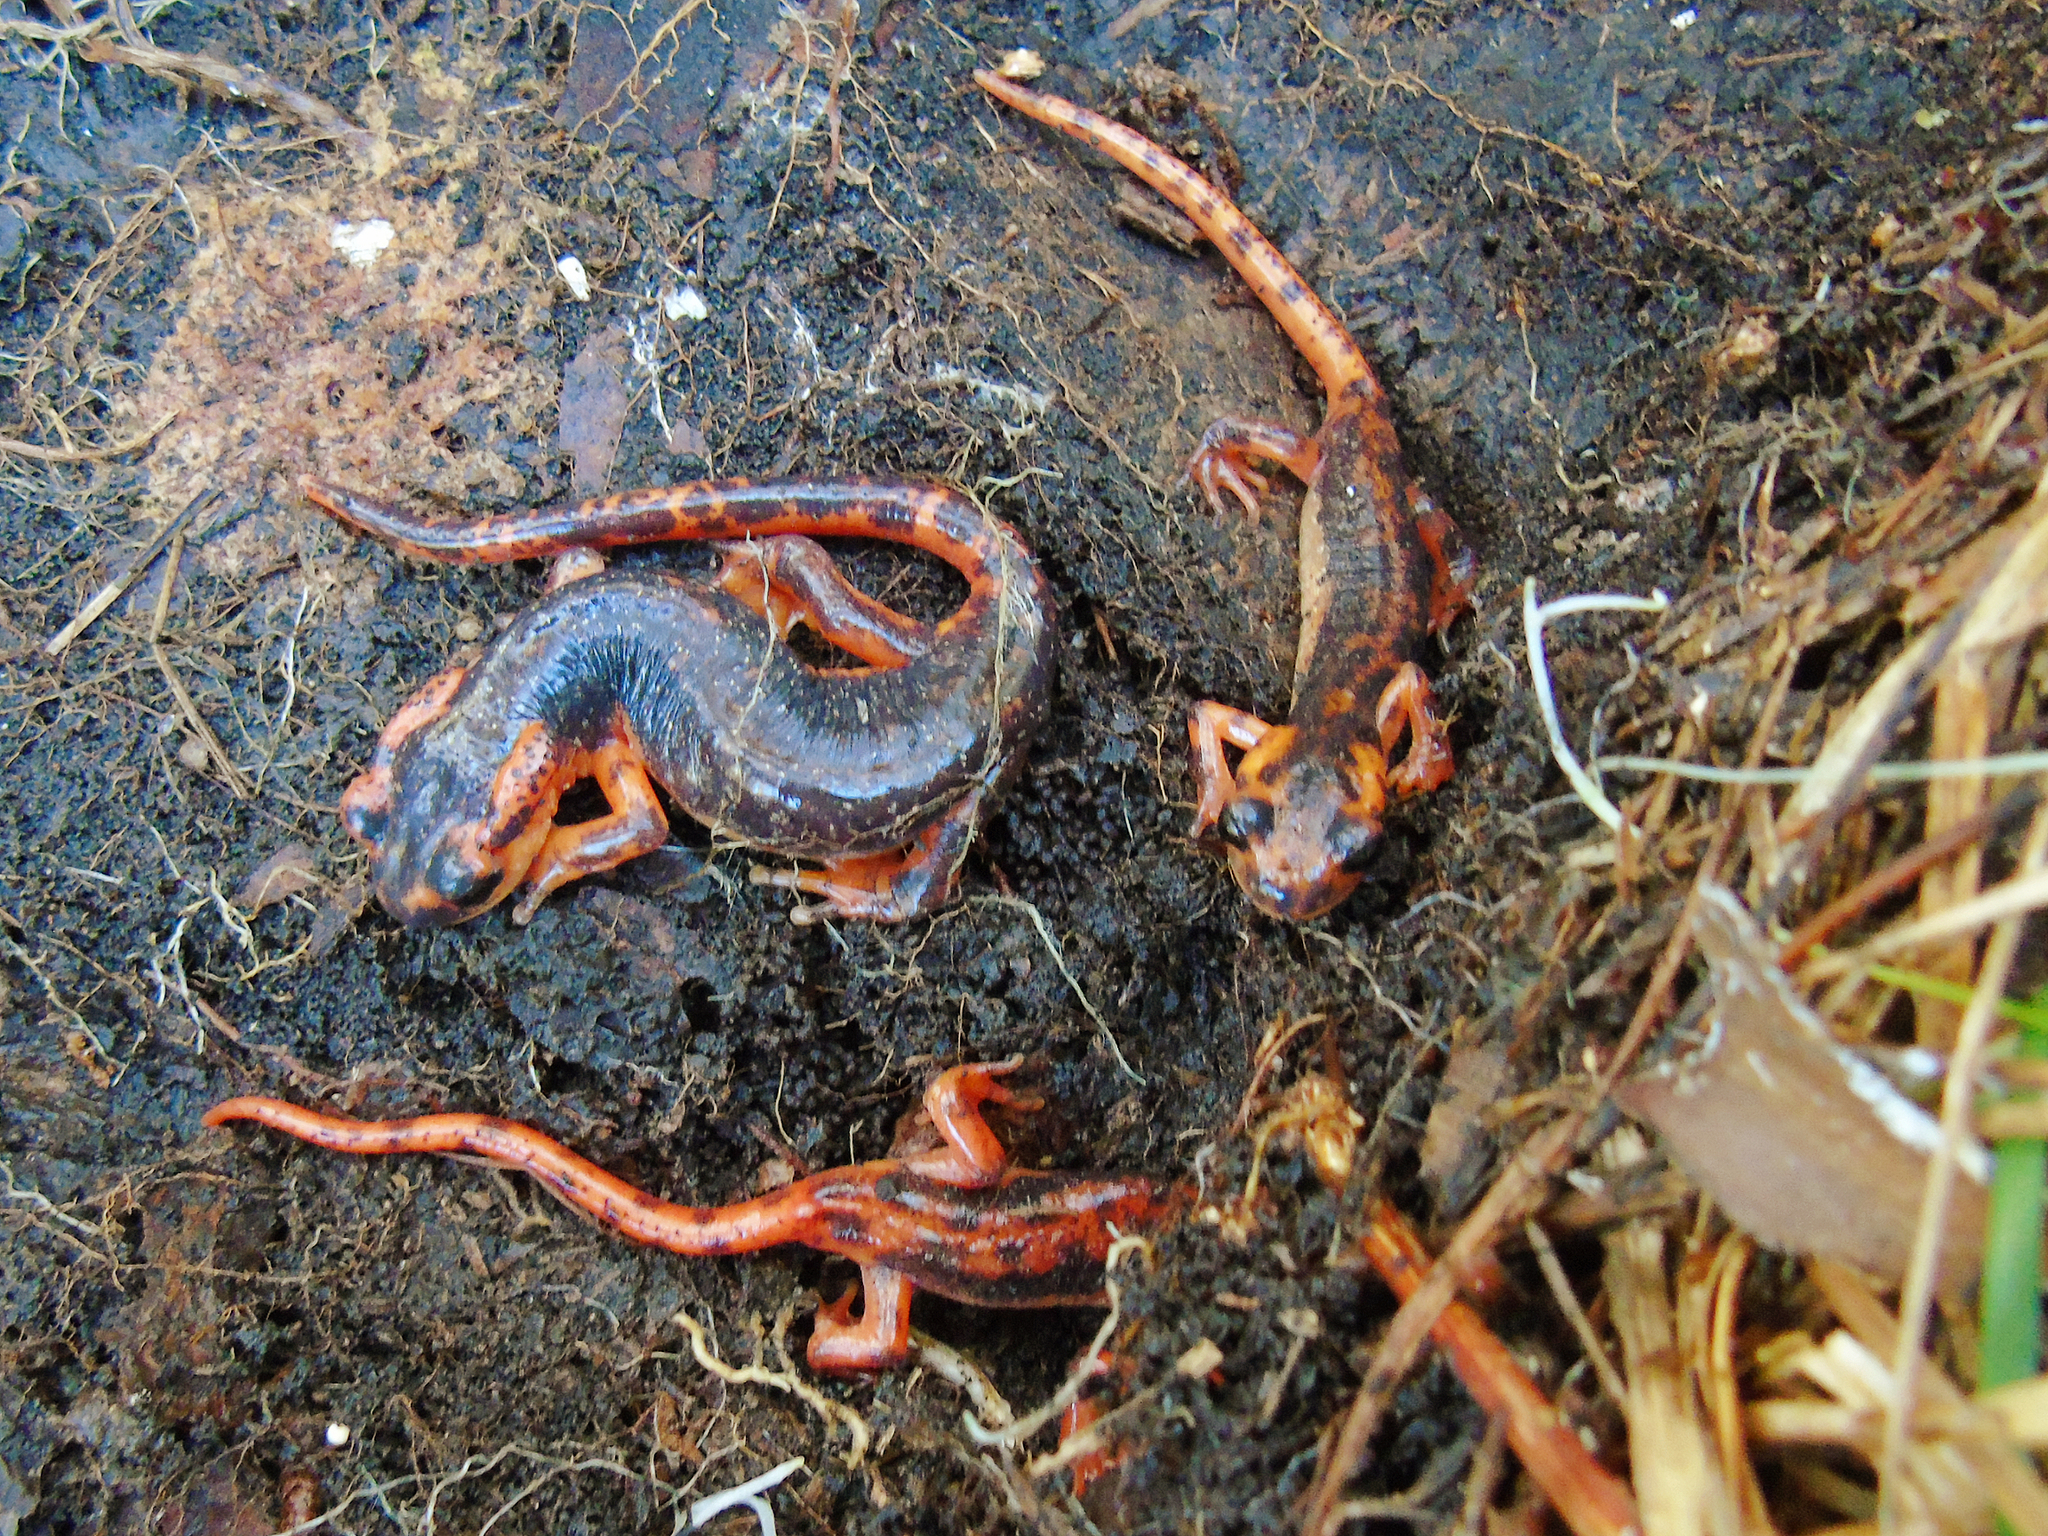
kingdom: Animalia
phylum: Chordata
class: Amphibia
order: Caudata
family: Salamandridae
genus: Lyciasalamandra
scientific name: Lyciasalamandra fazilae
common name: Fazila's salamander
